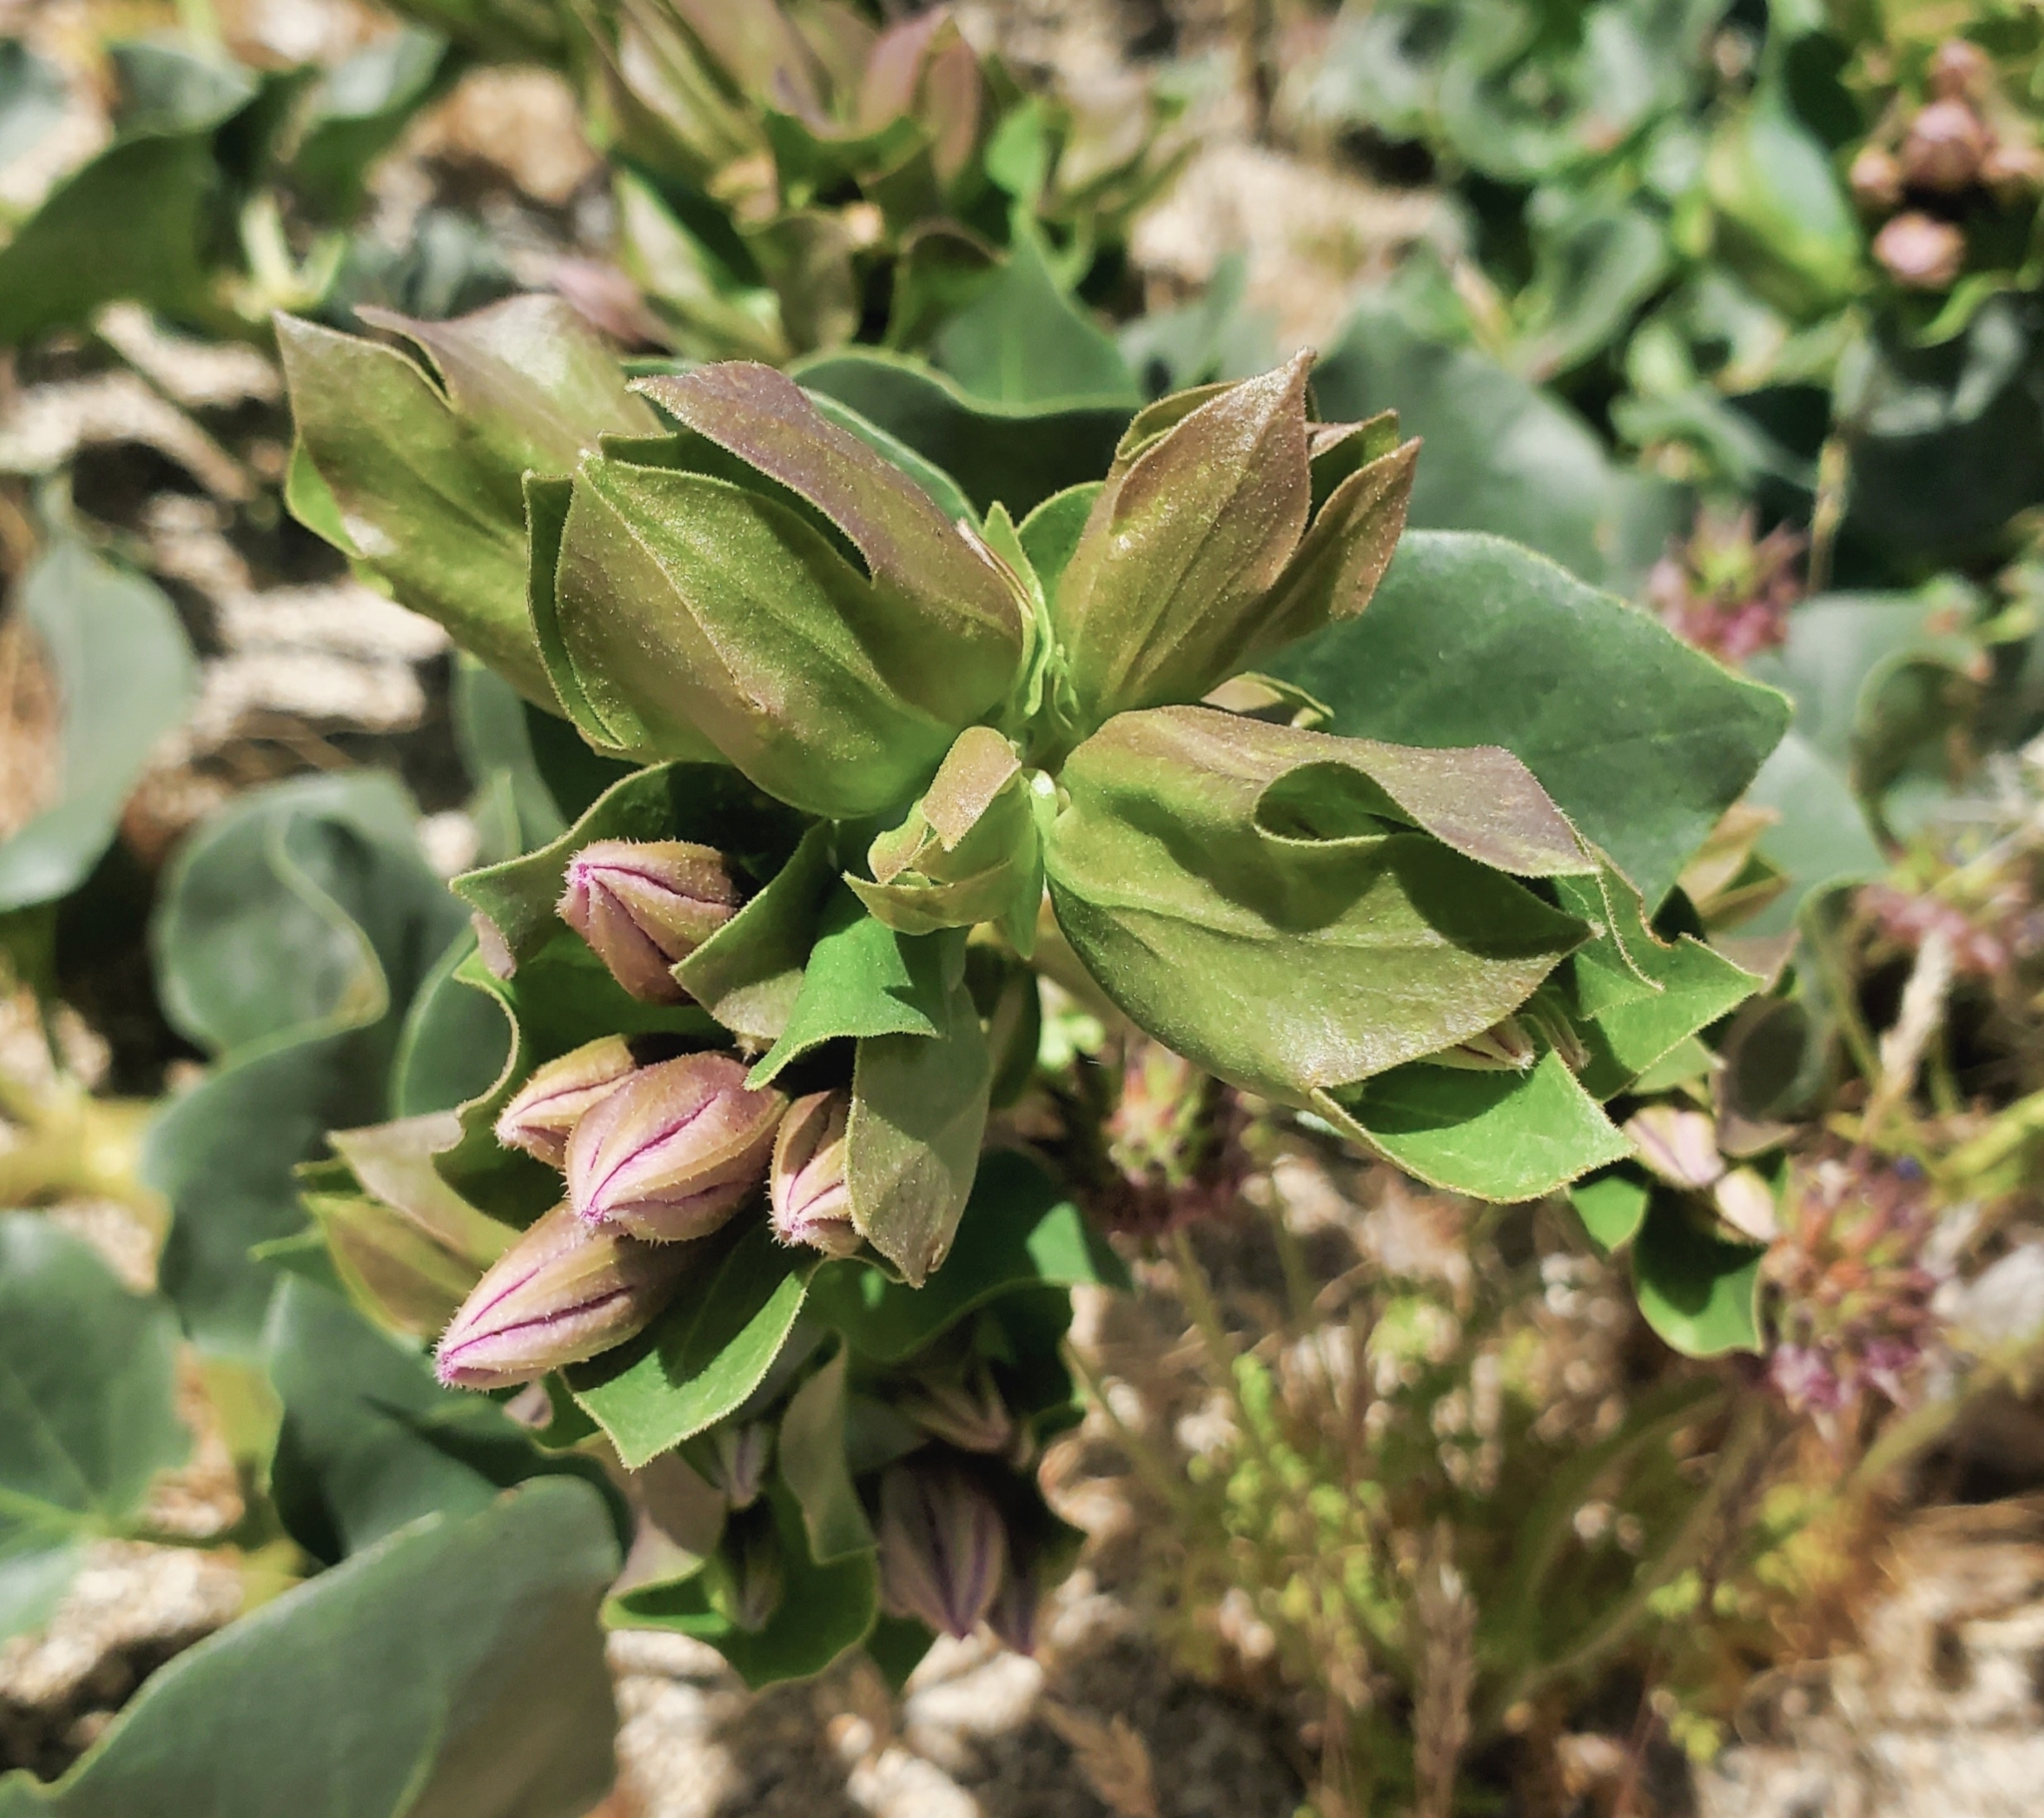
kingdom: Plantae
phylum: Tracheophyta
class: Magnoliopsida
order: Caryophyllales
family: Nyctaginaceae
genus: Mirabilis
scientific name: Mirabilis multiflora
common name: Froebel's four-o'clock
